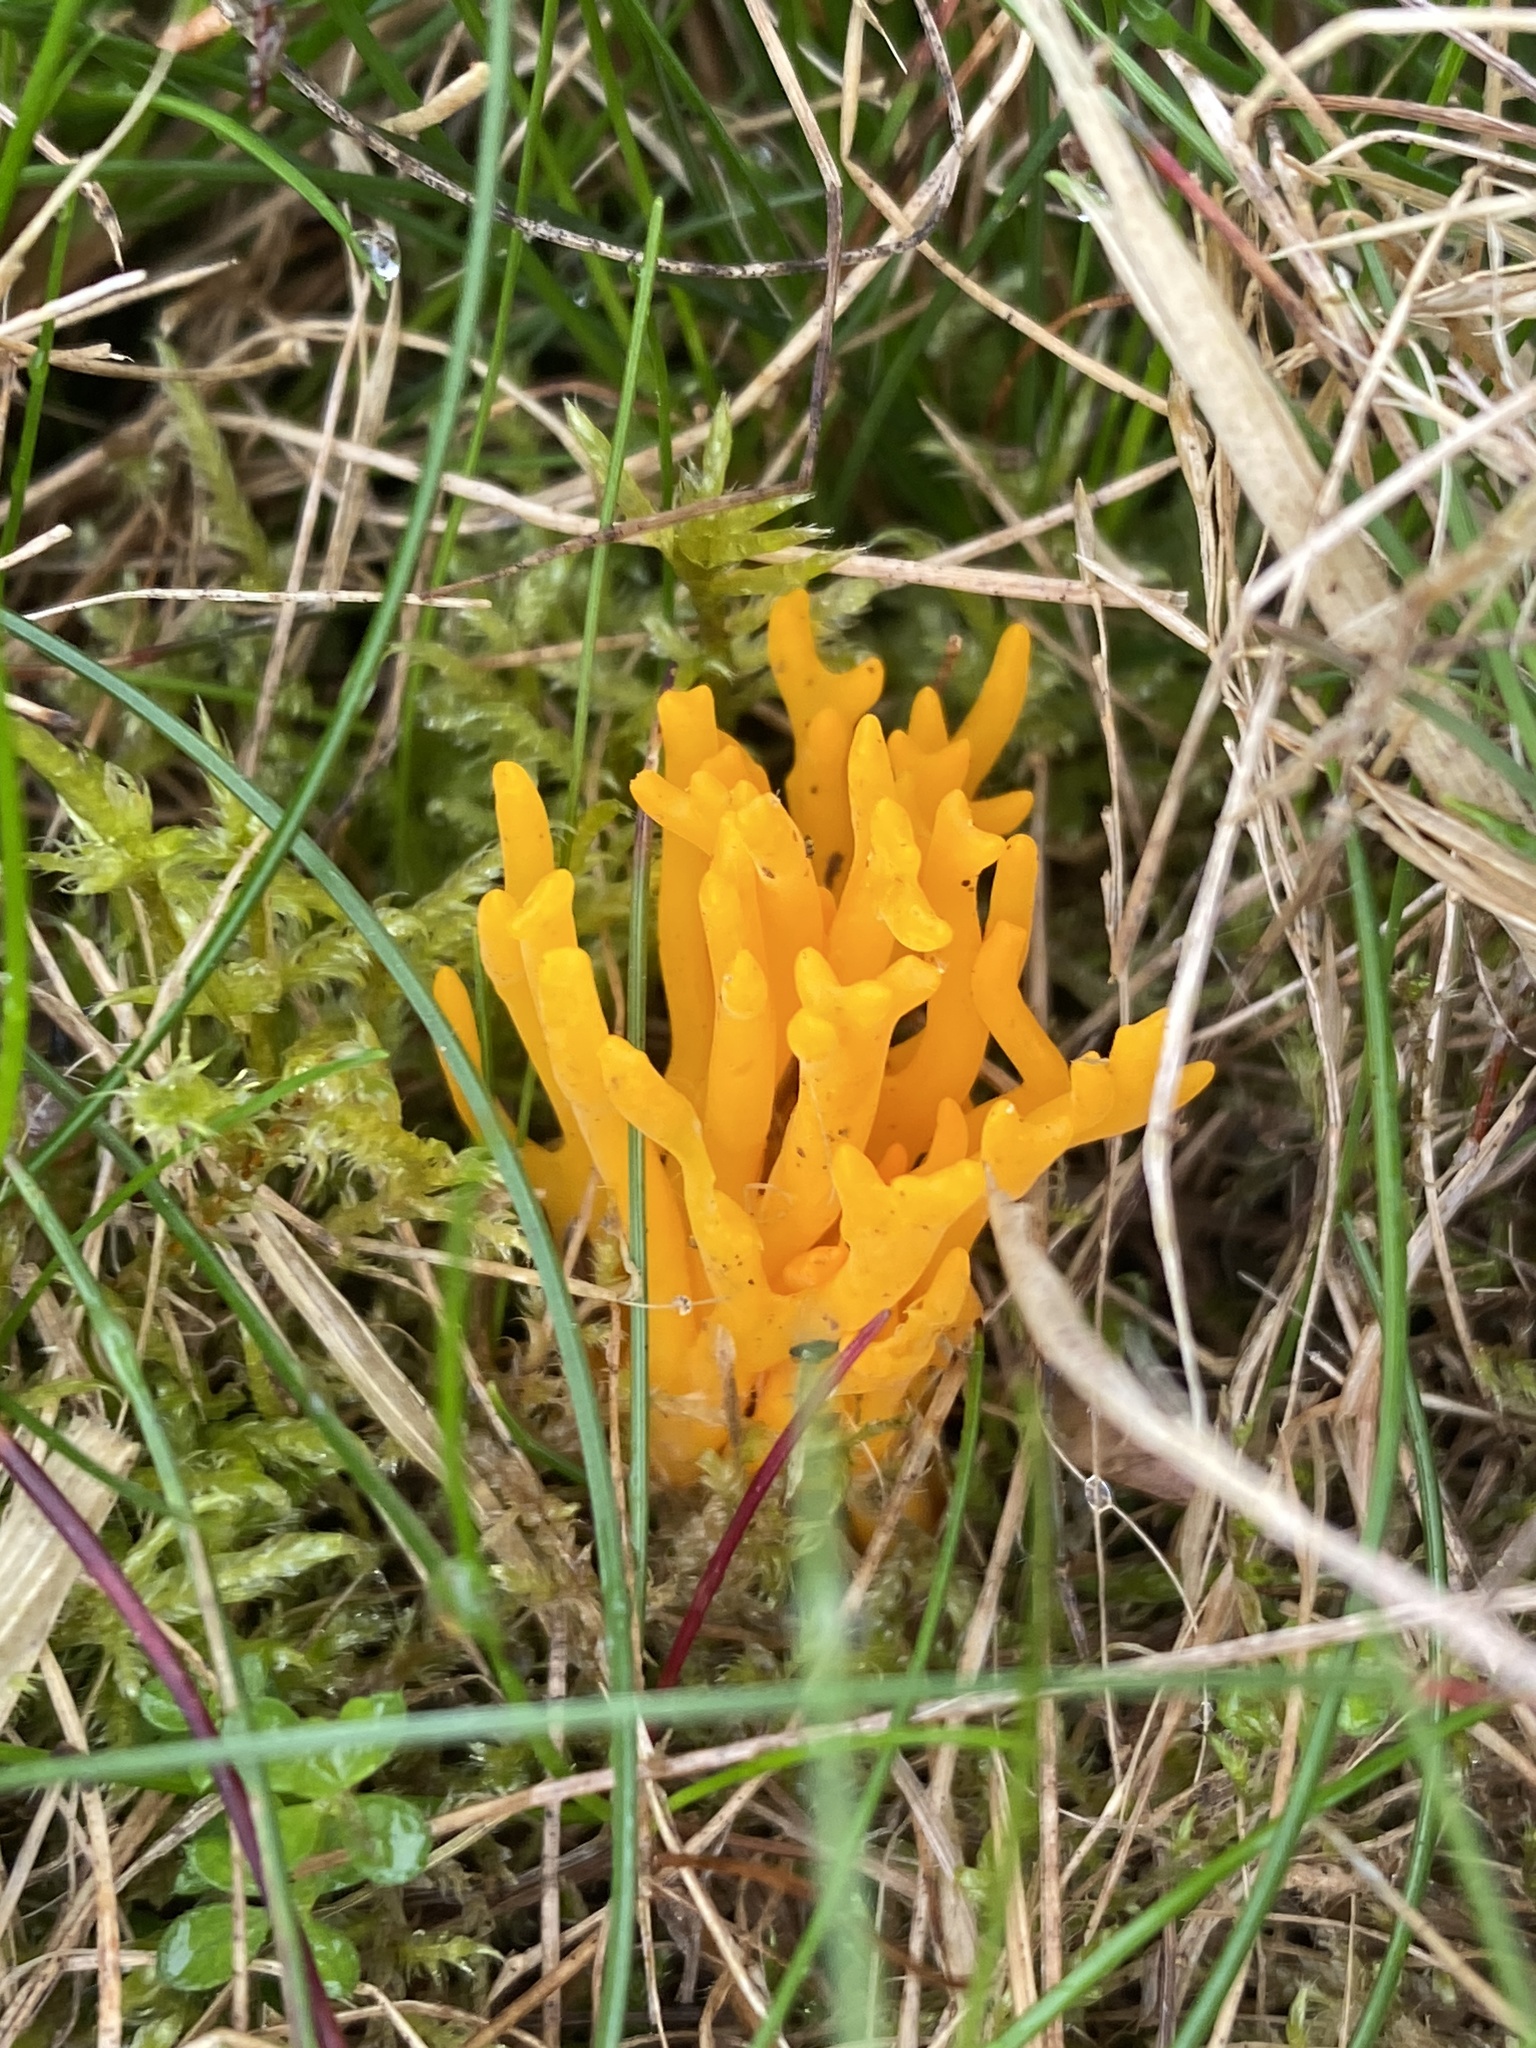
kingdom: Fungi
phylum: Basidiomycota
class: Dacrymycetes
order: Dacrymycetales
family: Dacrymycetaceae
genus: Calocera
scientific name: Calocera viscosa
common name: Yellow stagshorn
